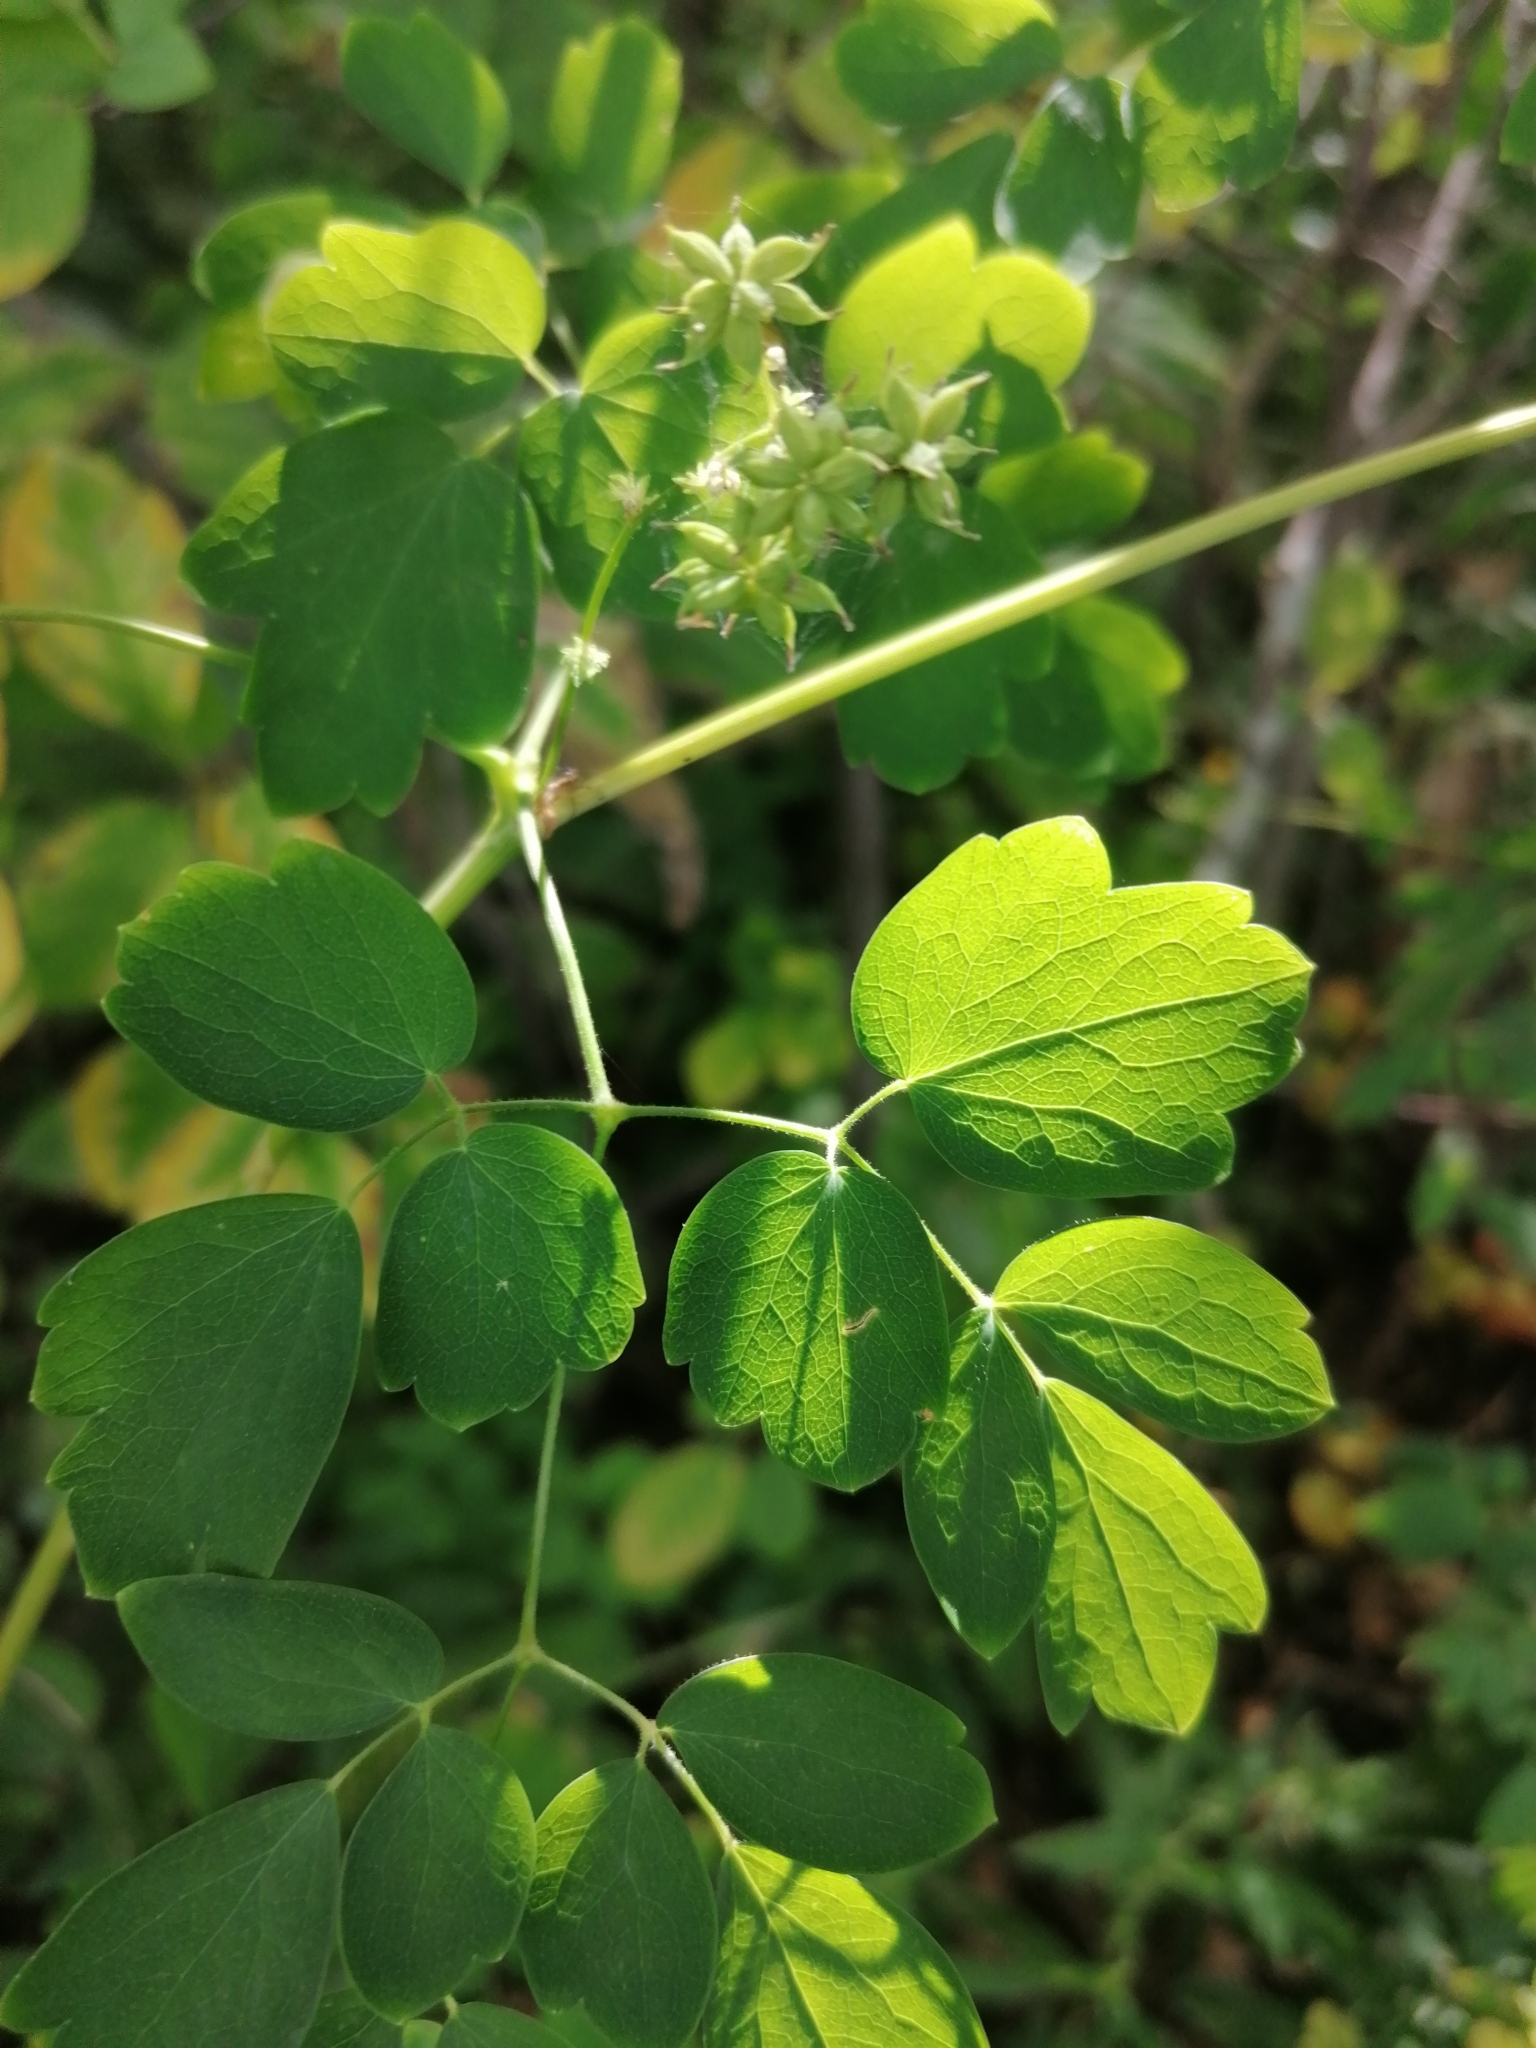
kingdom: Plantae
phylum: Tracheophyta
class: Magnoliopsida
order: Ranunculales
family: Ranunculaceae
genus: Thalictrum
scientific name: Thalictrum pubescens
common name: King-of-the-meadow
